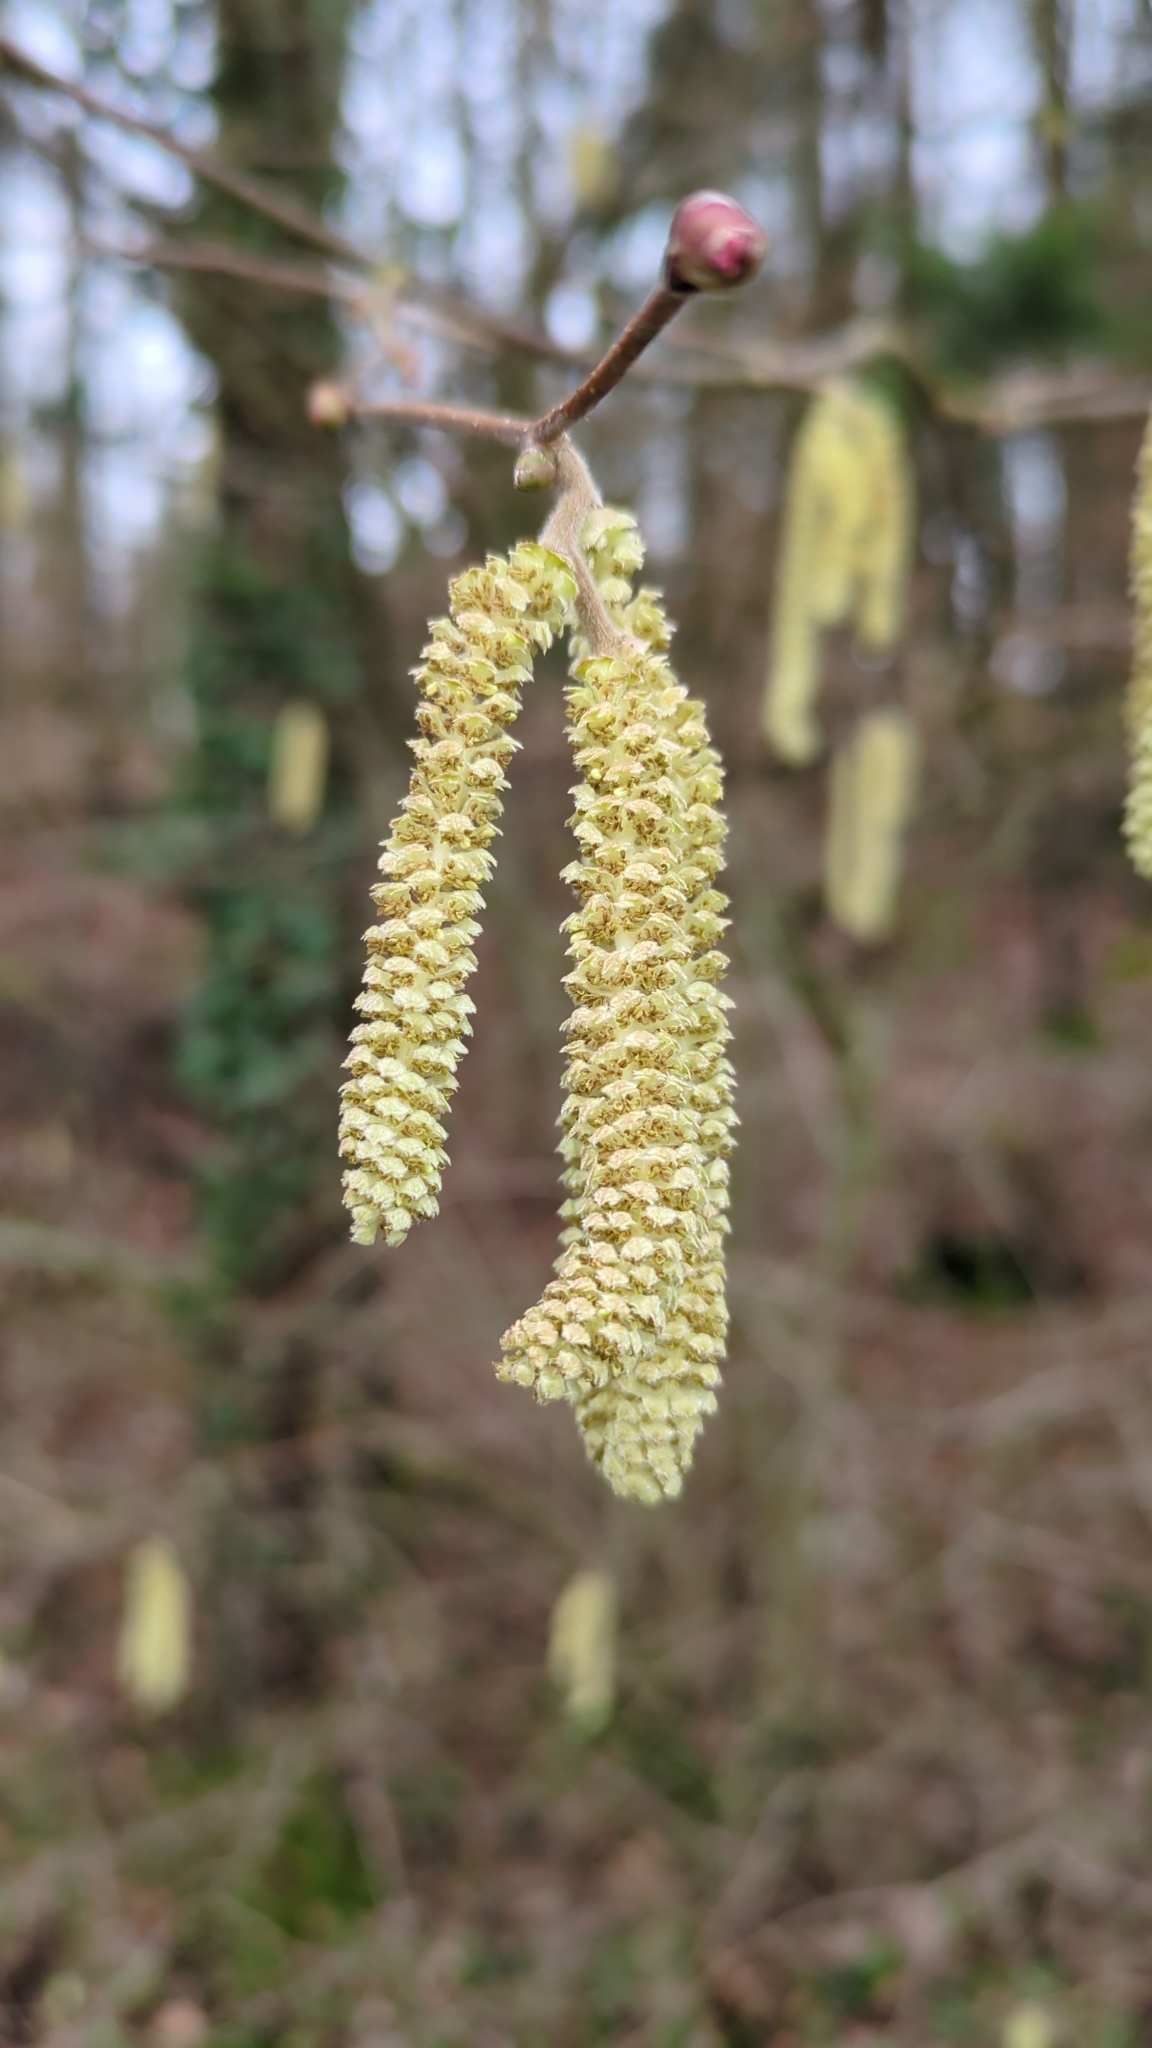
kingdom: Plantae
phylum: Tracheophyta
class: Magnoliopsida
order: Fagales
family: Betulaceae
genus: Corylus
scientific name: Corylus avellana
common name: European hazel
